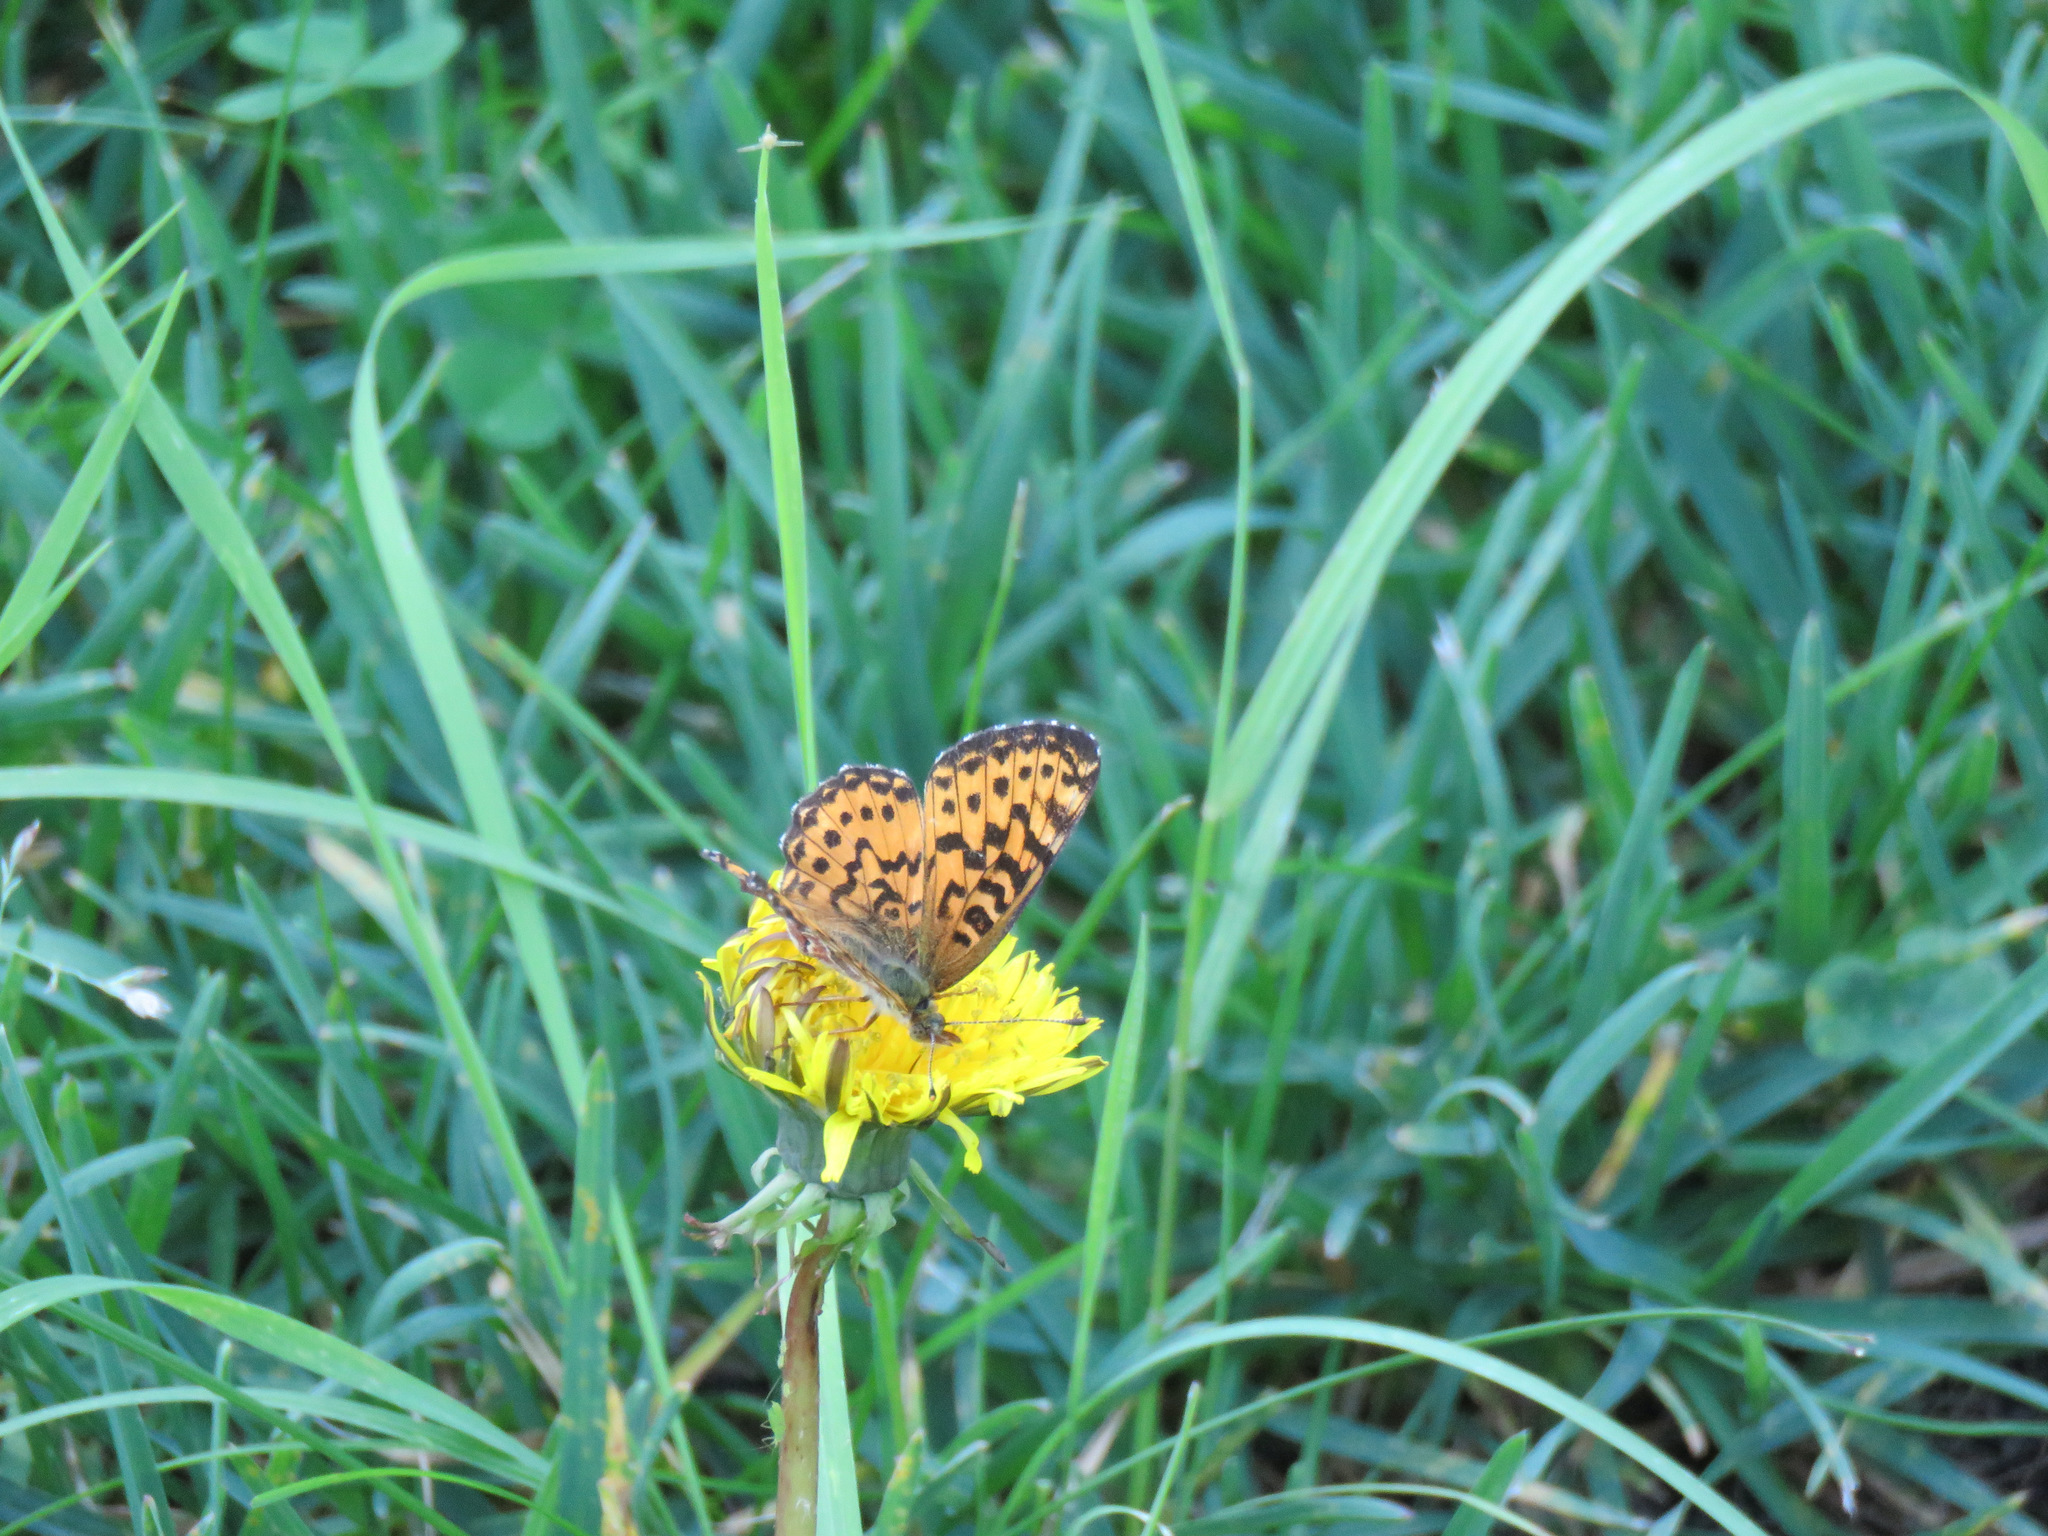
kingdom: Animalia
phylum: Arthropoda
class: Insecta
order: Lepidoptera
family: Nymphalidae
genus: Boloria
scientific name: Boloria chariclea
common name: Arctic fritillary
